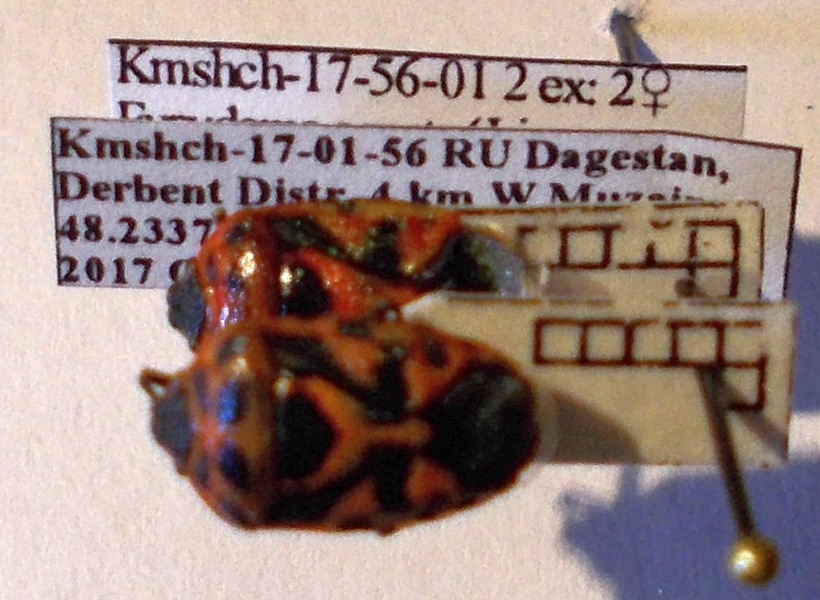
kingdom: Animalia
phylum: Arthropoda
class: Insecta
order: Hemiptera
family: Pentatomidae
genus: Eurydema
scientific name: Eurydema ornata
